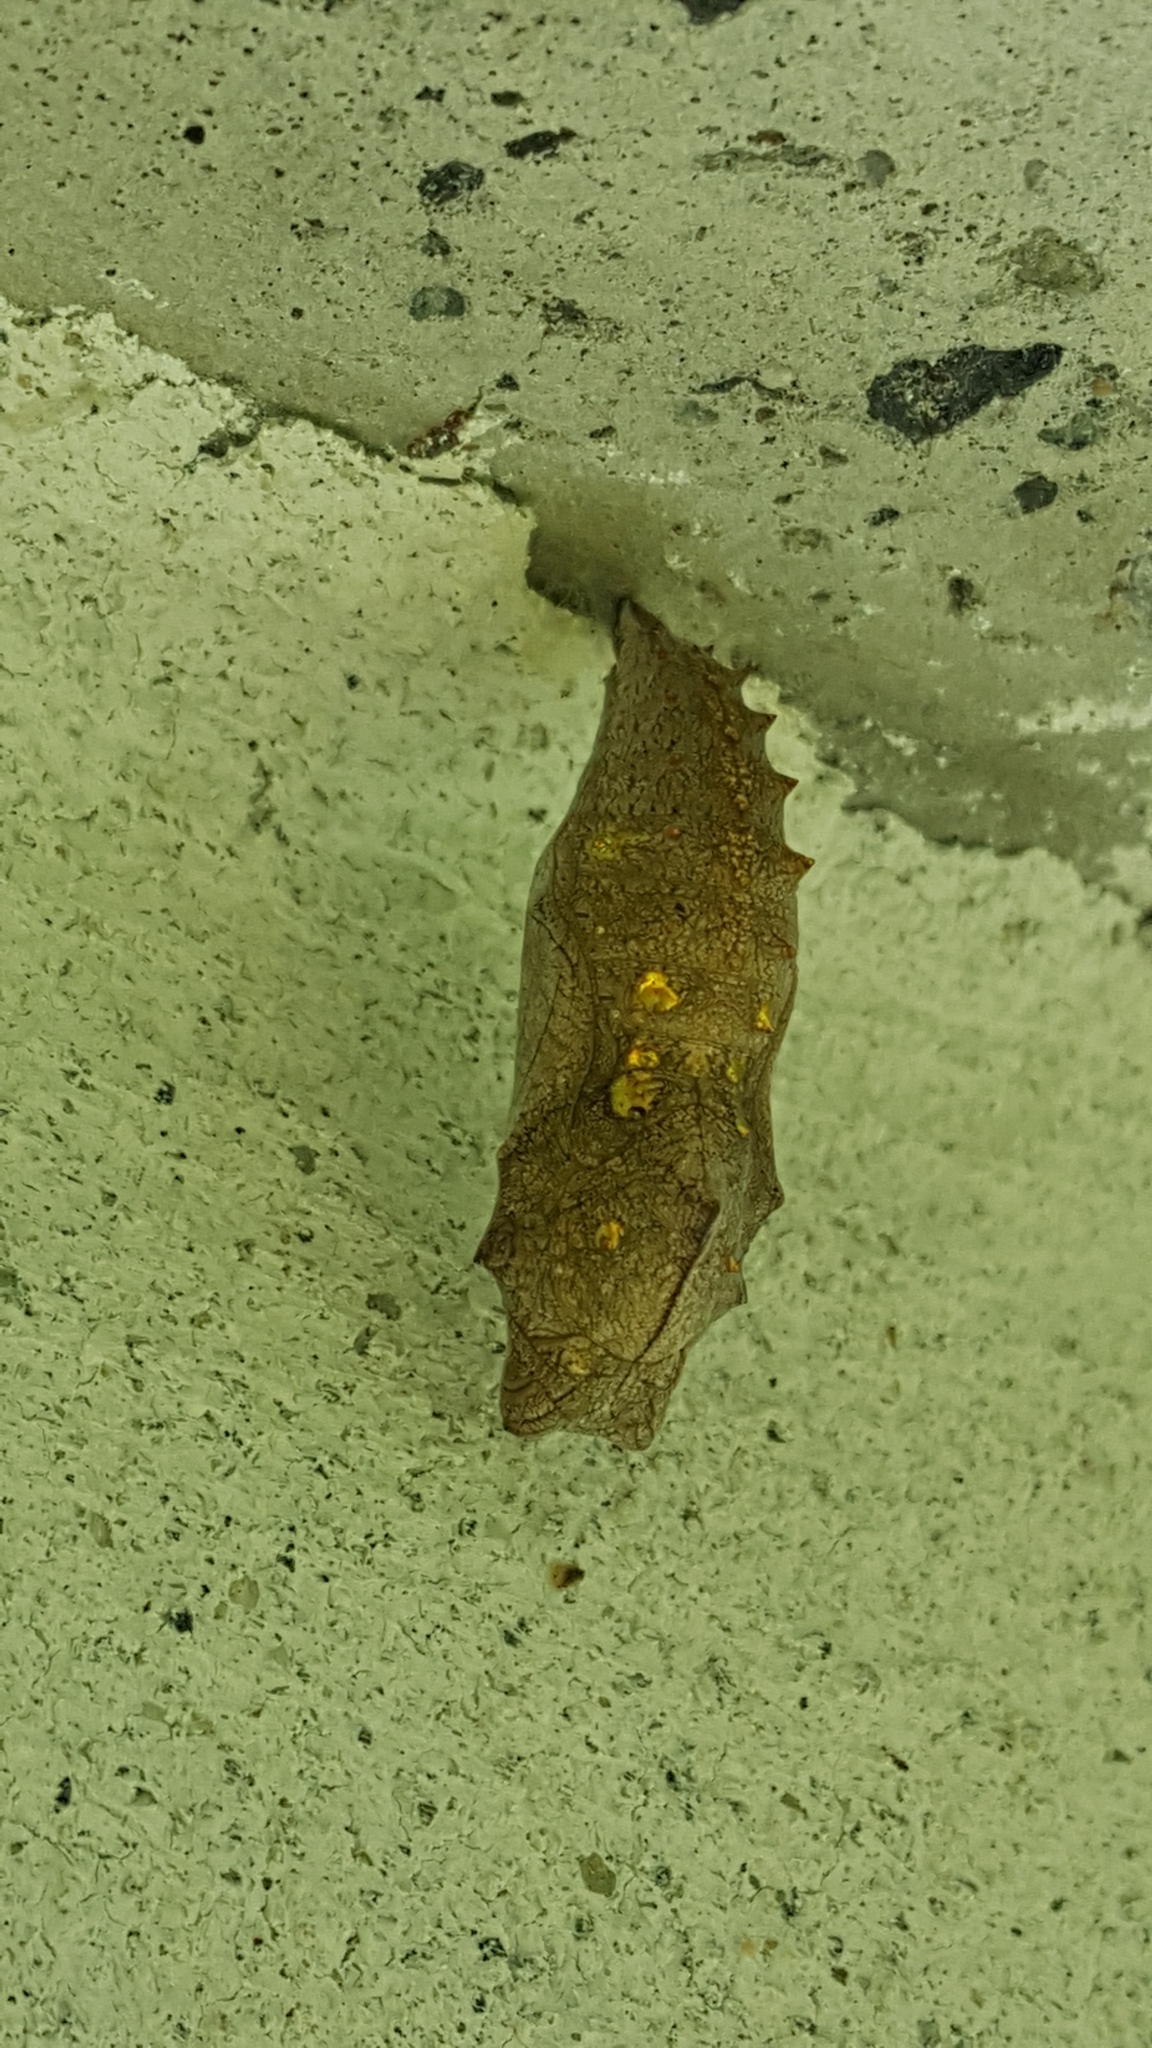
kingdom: Animalia
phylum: Arthropoda
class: Insecta
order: Lepidoptera
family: Nymphalidae
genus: Vanessa
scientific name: Vanessa atalanta
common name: Red admiral
